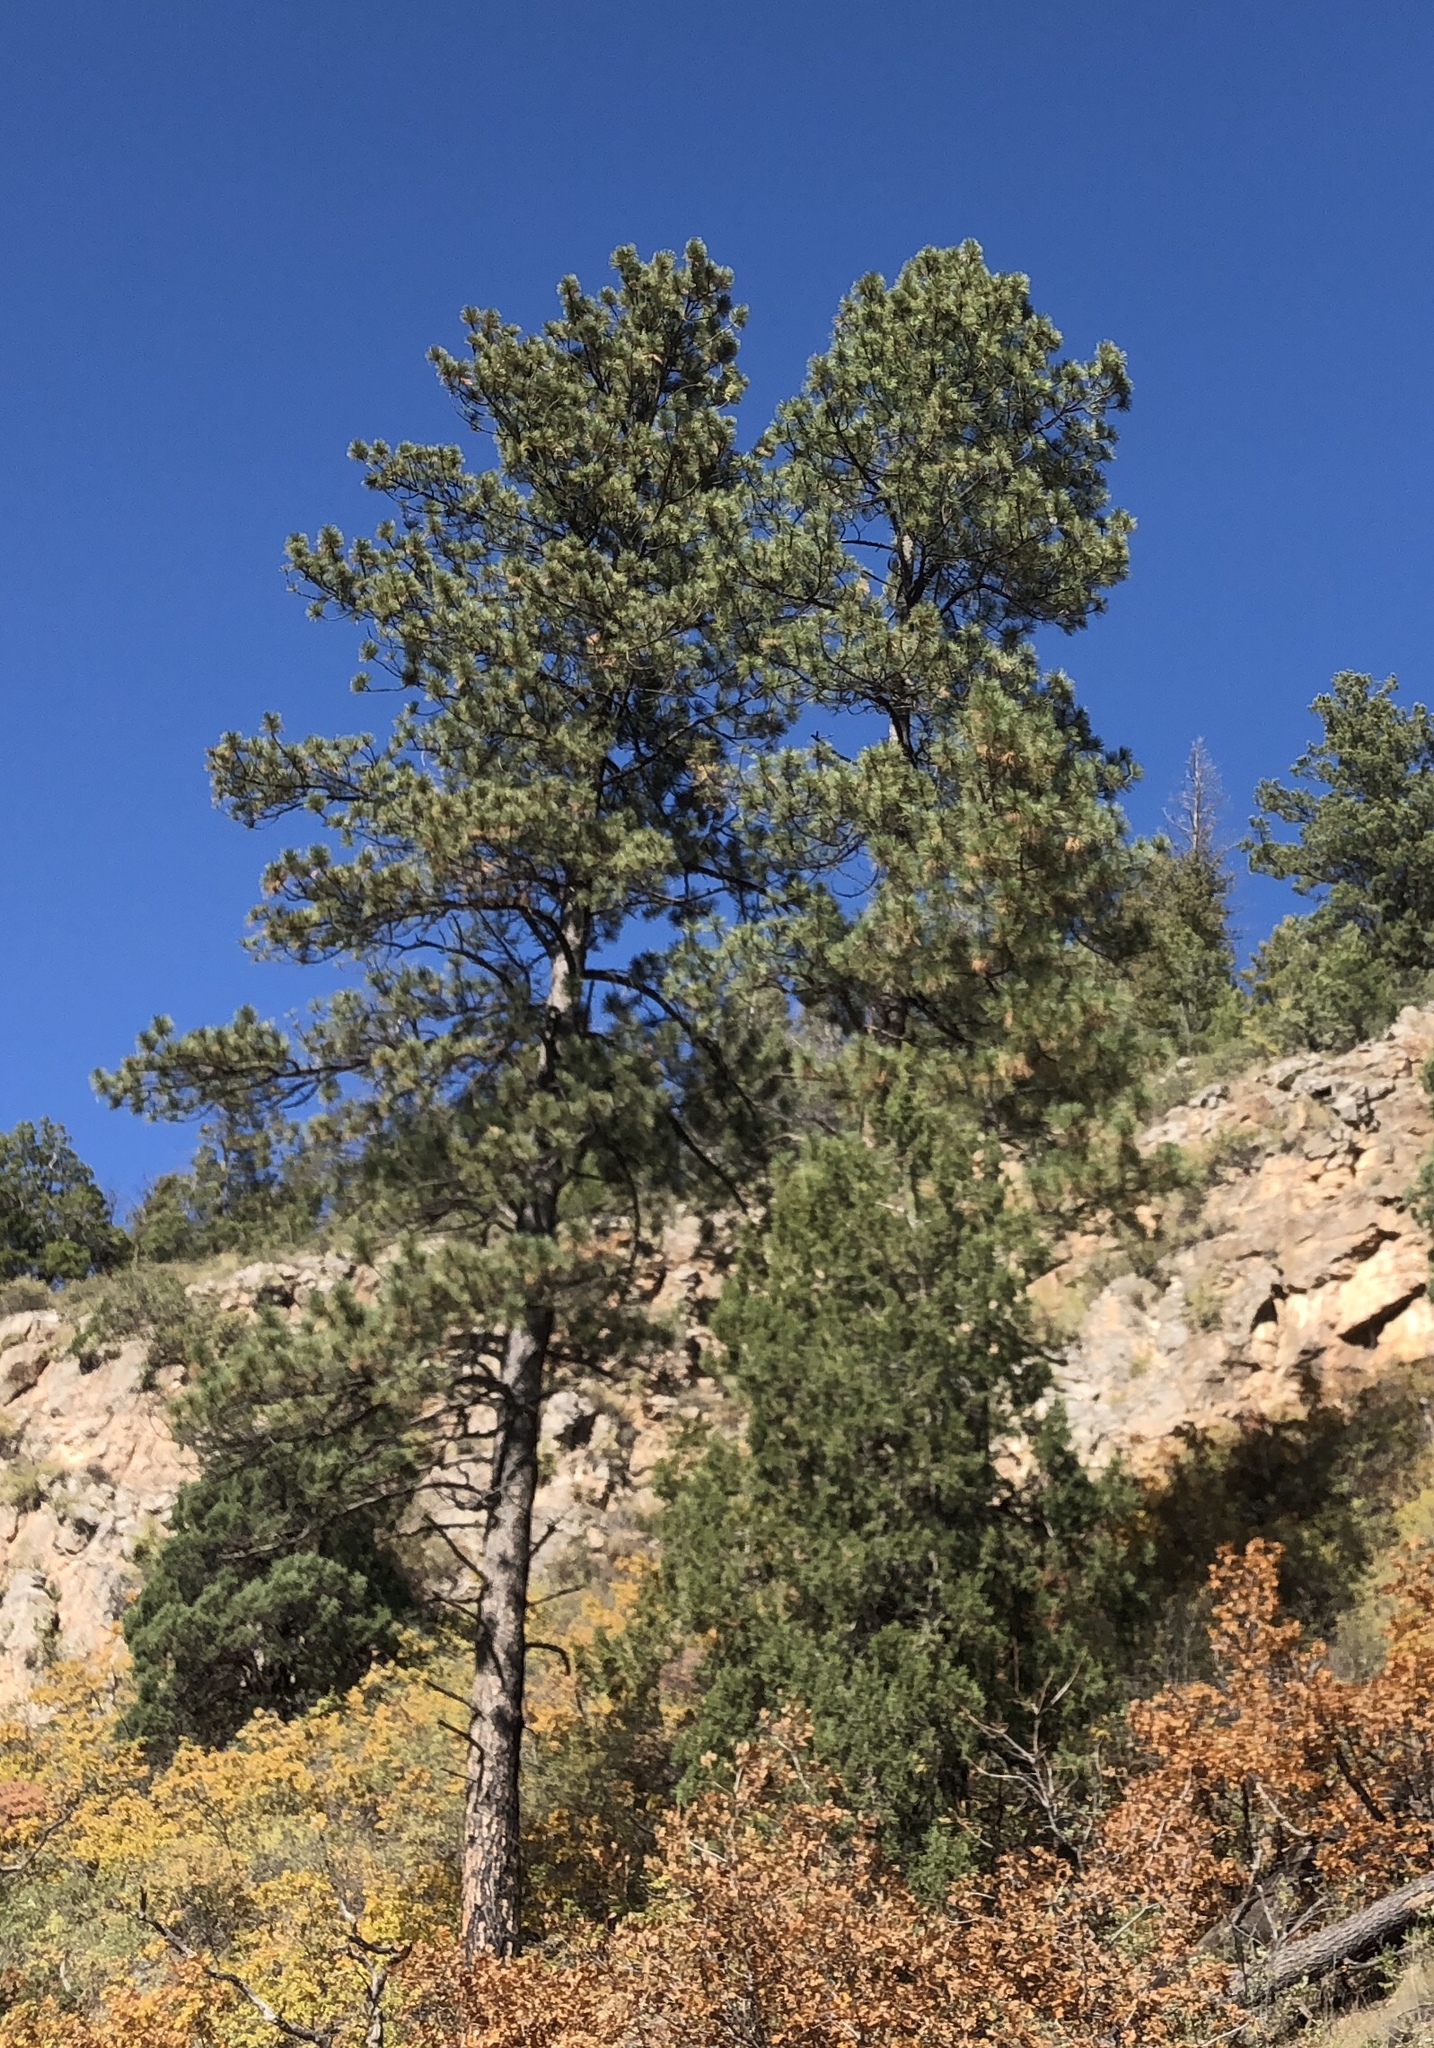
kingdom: Plantae
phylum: Tracheophyta
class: Pinopsida
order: Pinales
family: Pinaceae
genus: Pinus
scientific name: Pinus ponderosa
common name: Western yellow-pine
